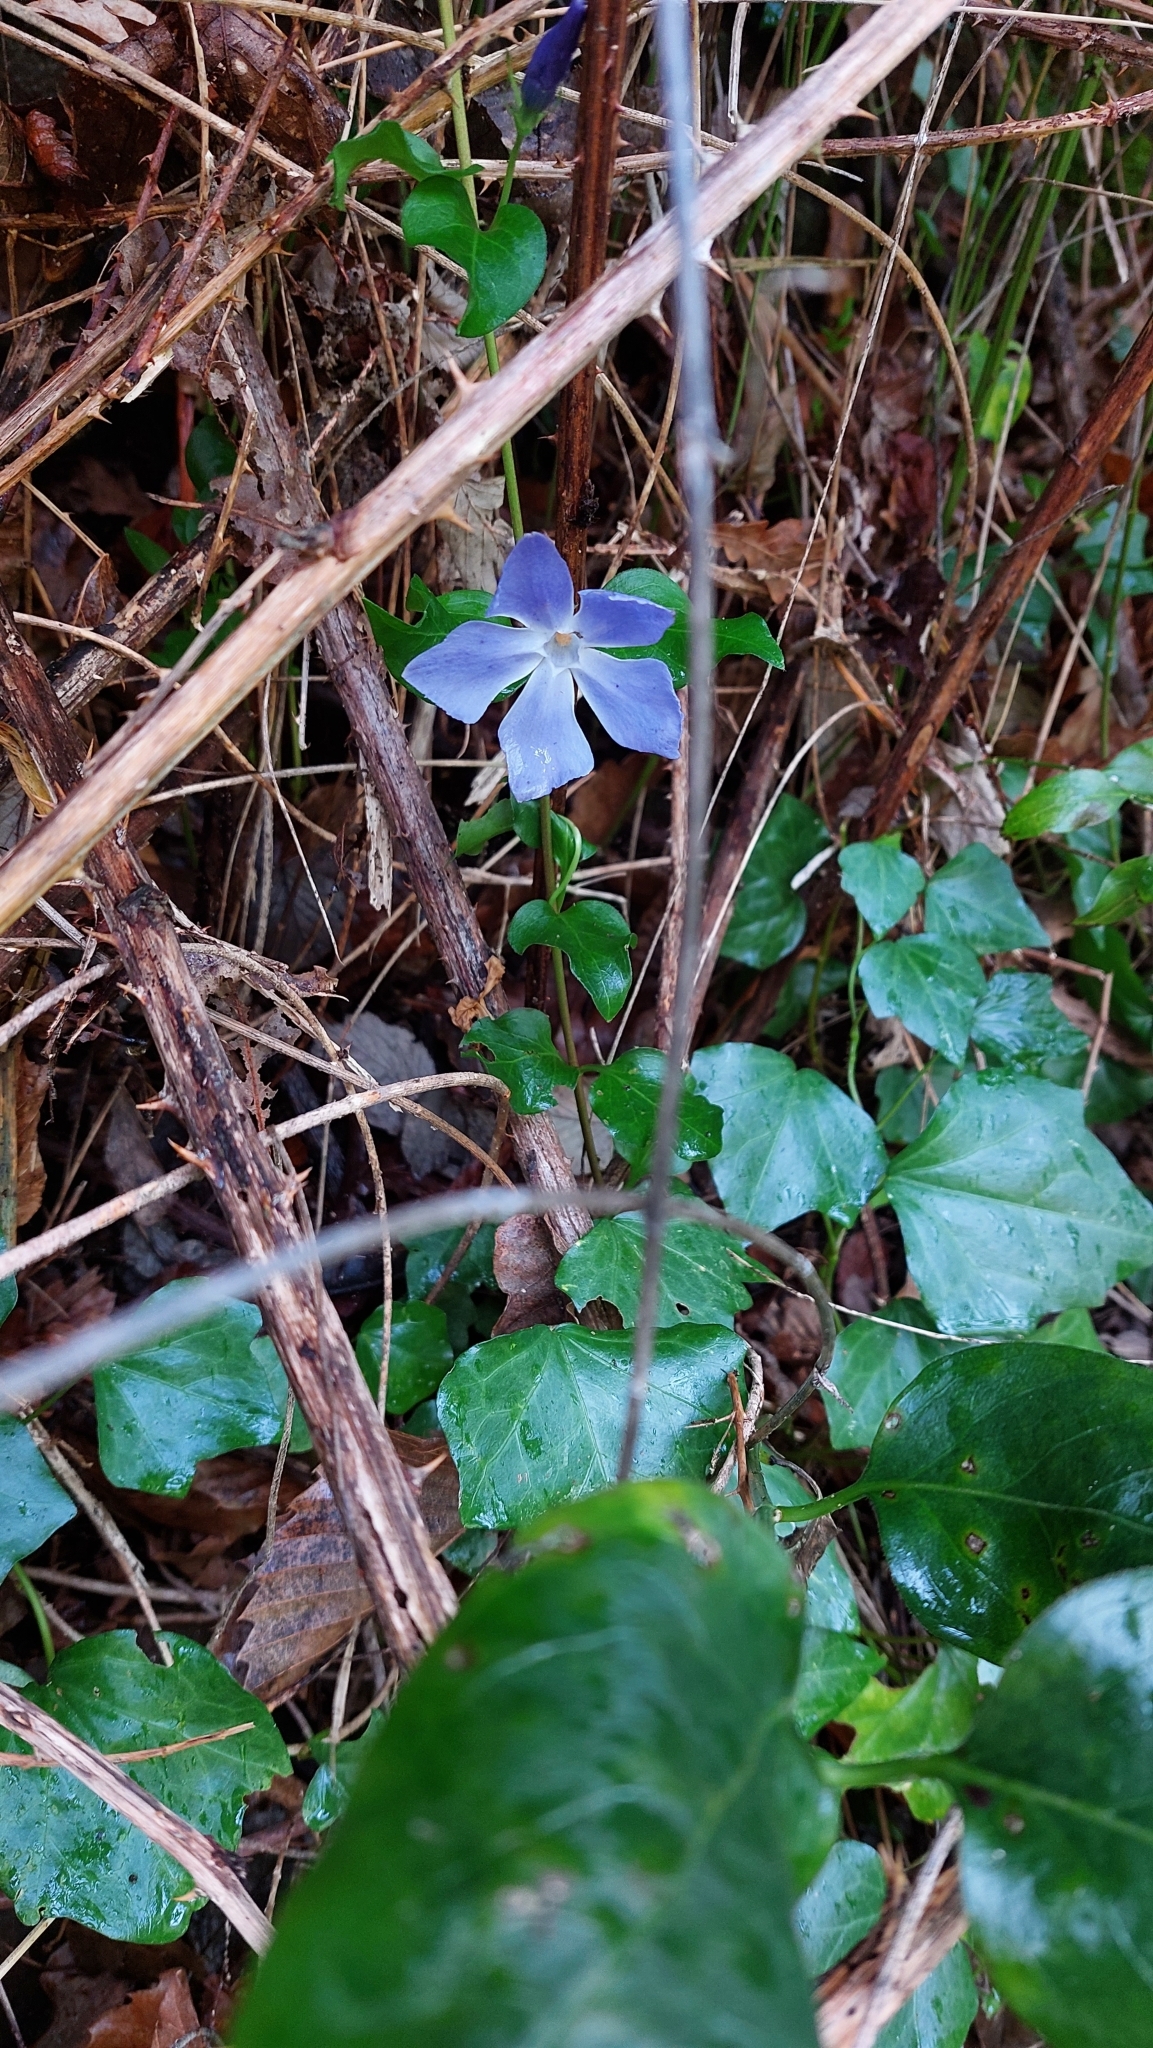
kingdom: Plantae
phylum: Tracheophyta
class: Magnoliopsida
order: Gentianales
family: Apocynaceae
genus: Vinca
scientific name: Vinca major
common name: Greater periwinkle
